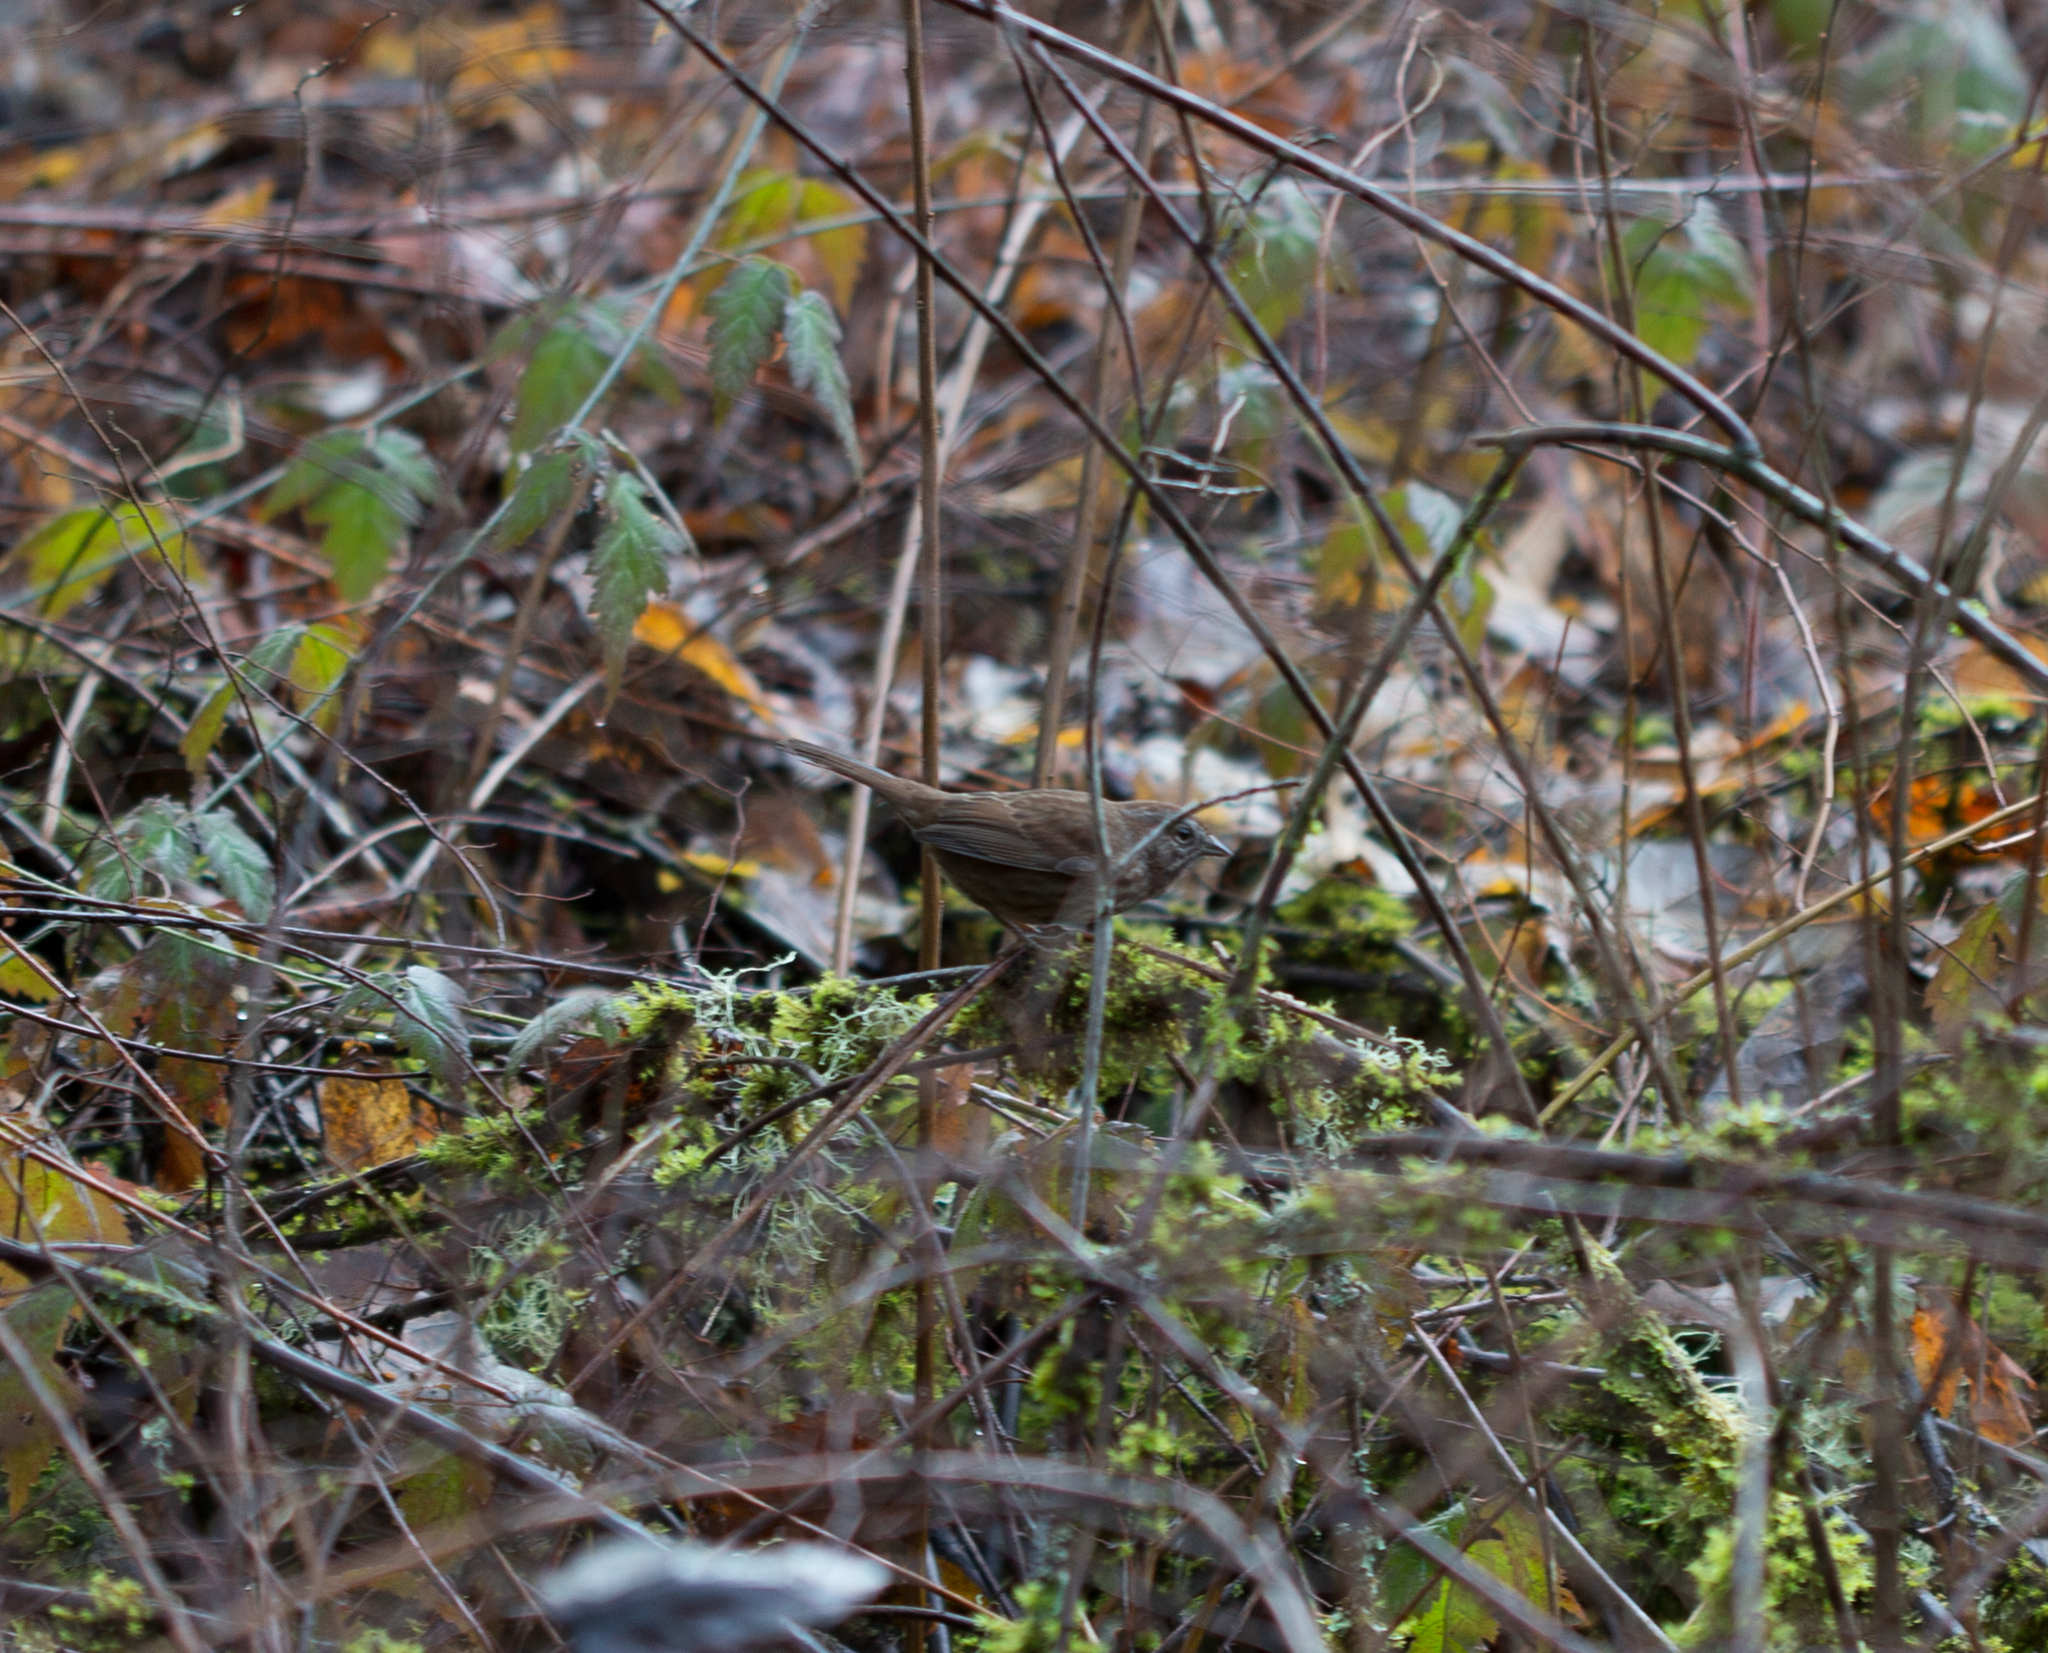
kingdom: Animalia
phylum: Chordata
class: Aves
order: Passeriformes
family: Passerellidae
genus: Melospiza
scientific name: Melospiza melodia
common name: Song sparrow
